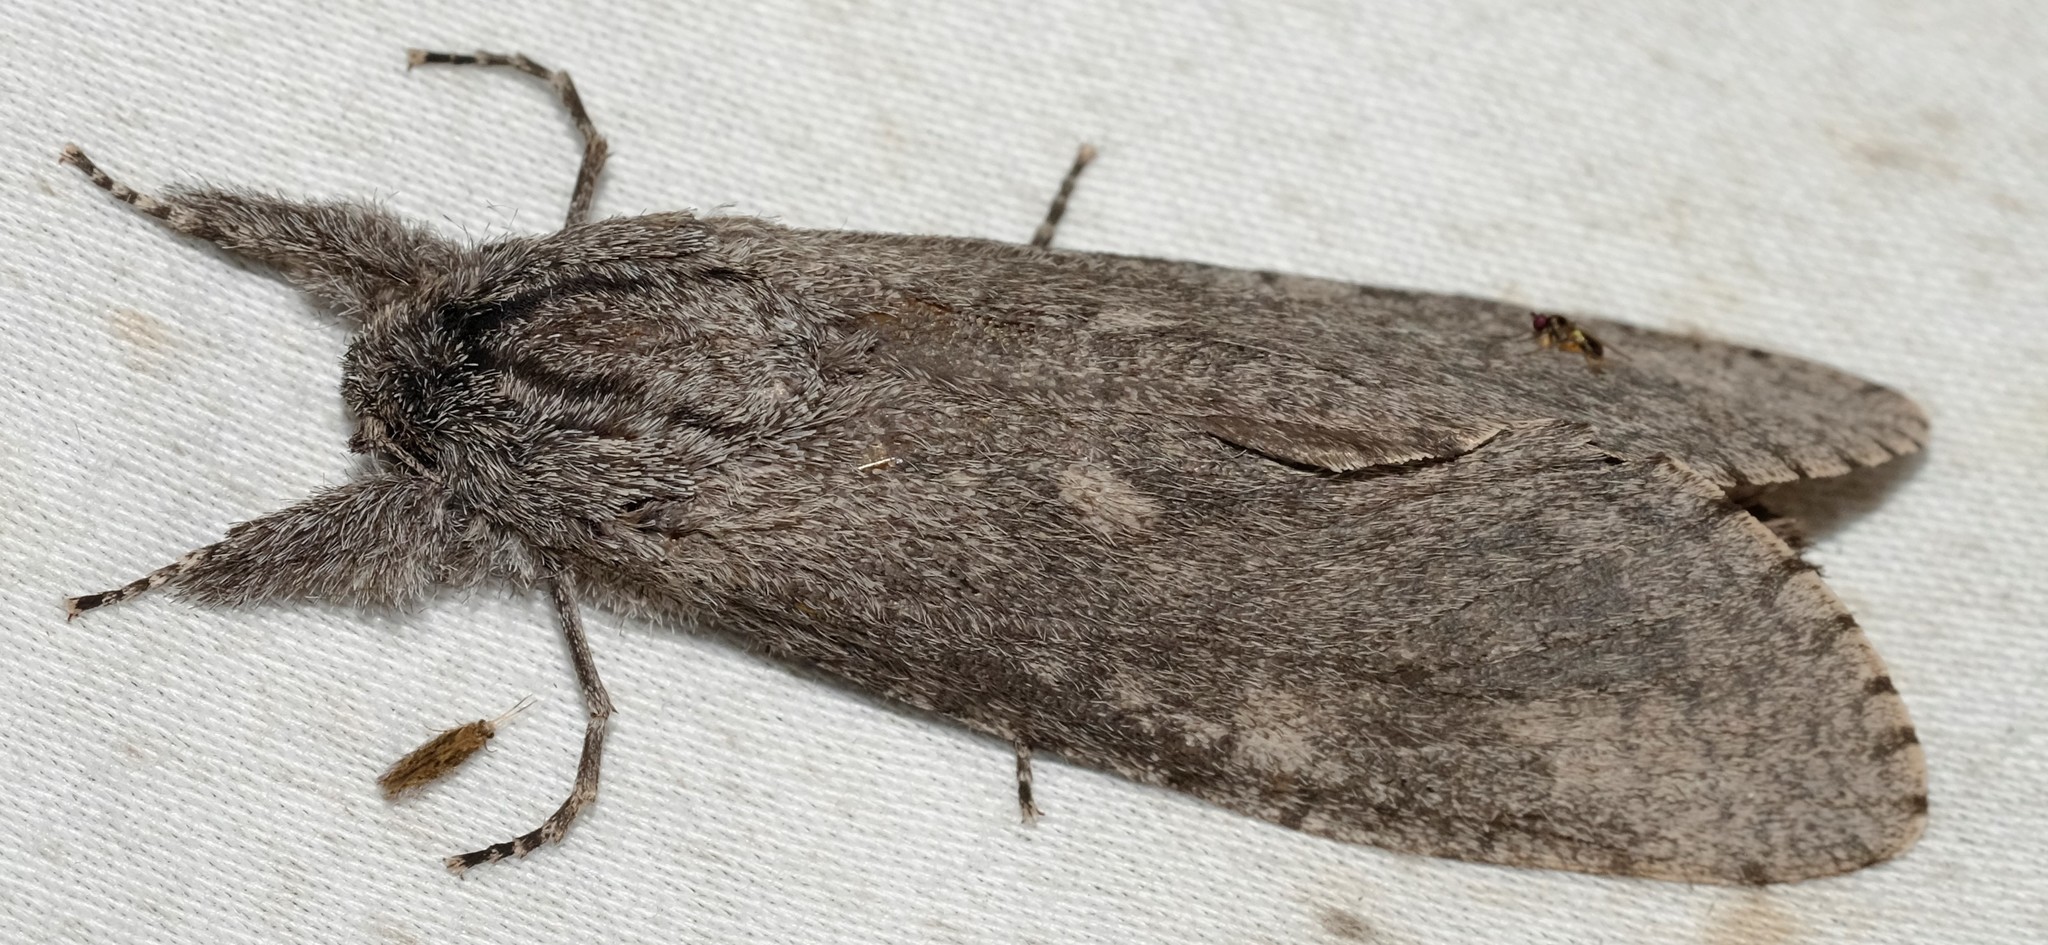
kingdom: Animalia
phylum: Arthropoda
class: Insecta
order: Lepidoptera
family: Cossidae
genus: Endoxyla
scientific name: Endoxyla
